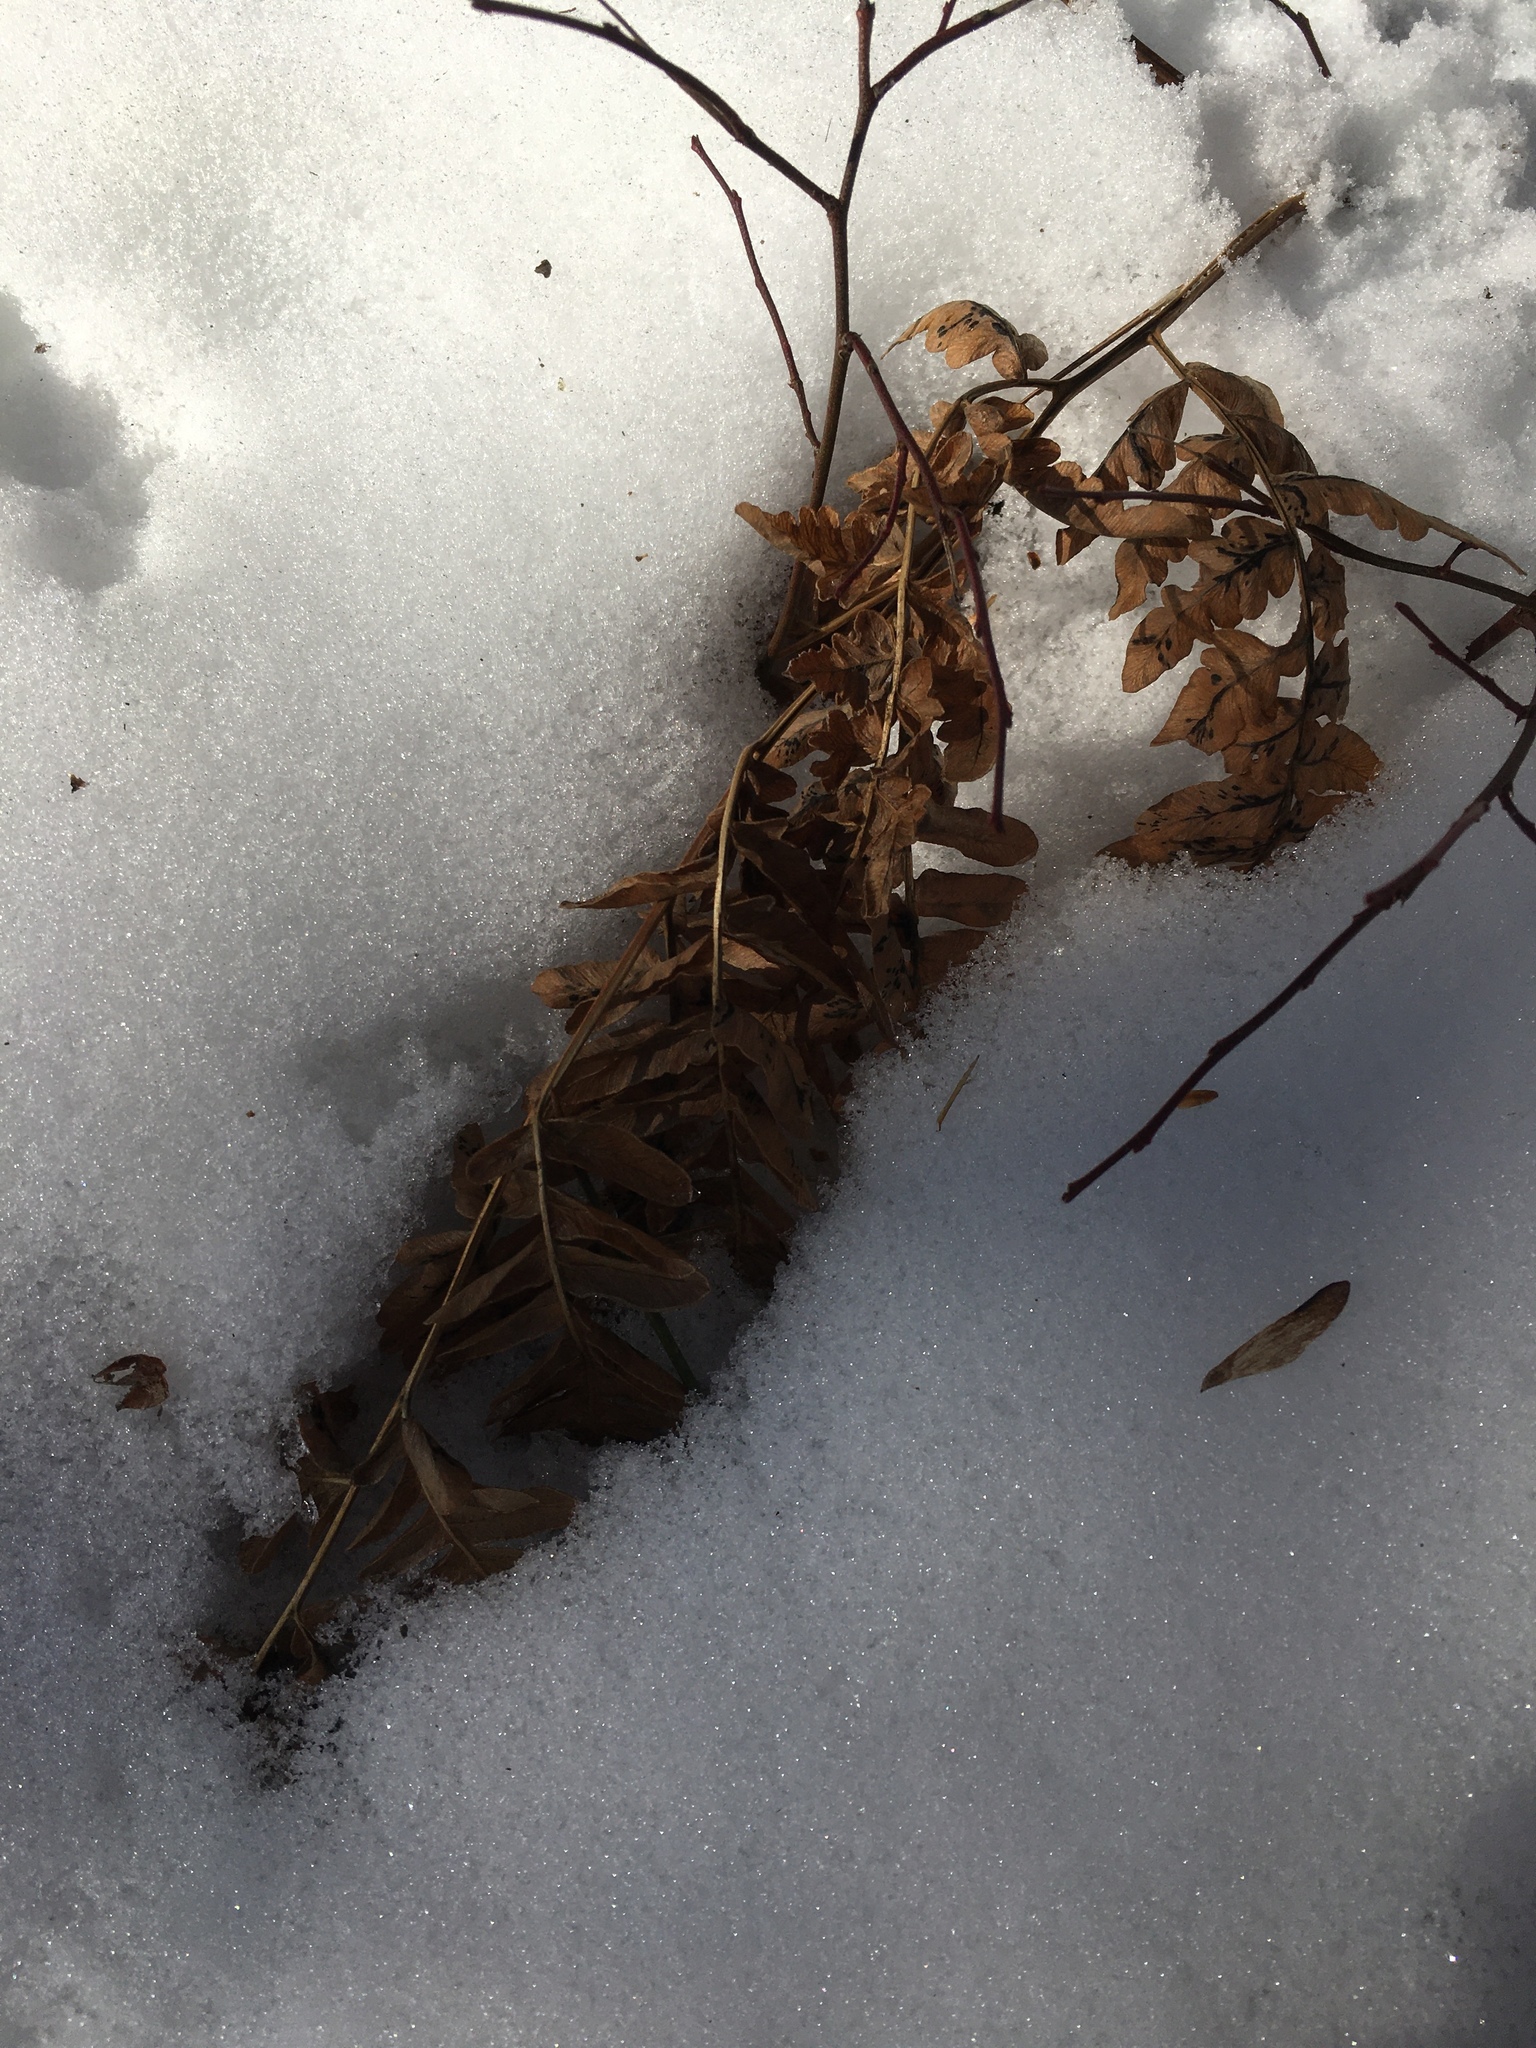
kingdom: Plantae
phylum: Tracheophyta
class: Polypodiopsida
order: Polypodiales
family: Dennstaedtiaceae
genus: Pteridium
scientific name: Pteridium aquilinum
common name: Bracken
